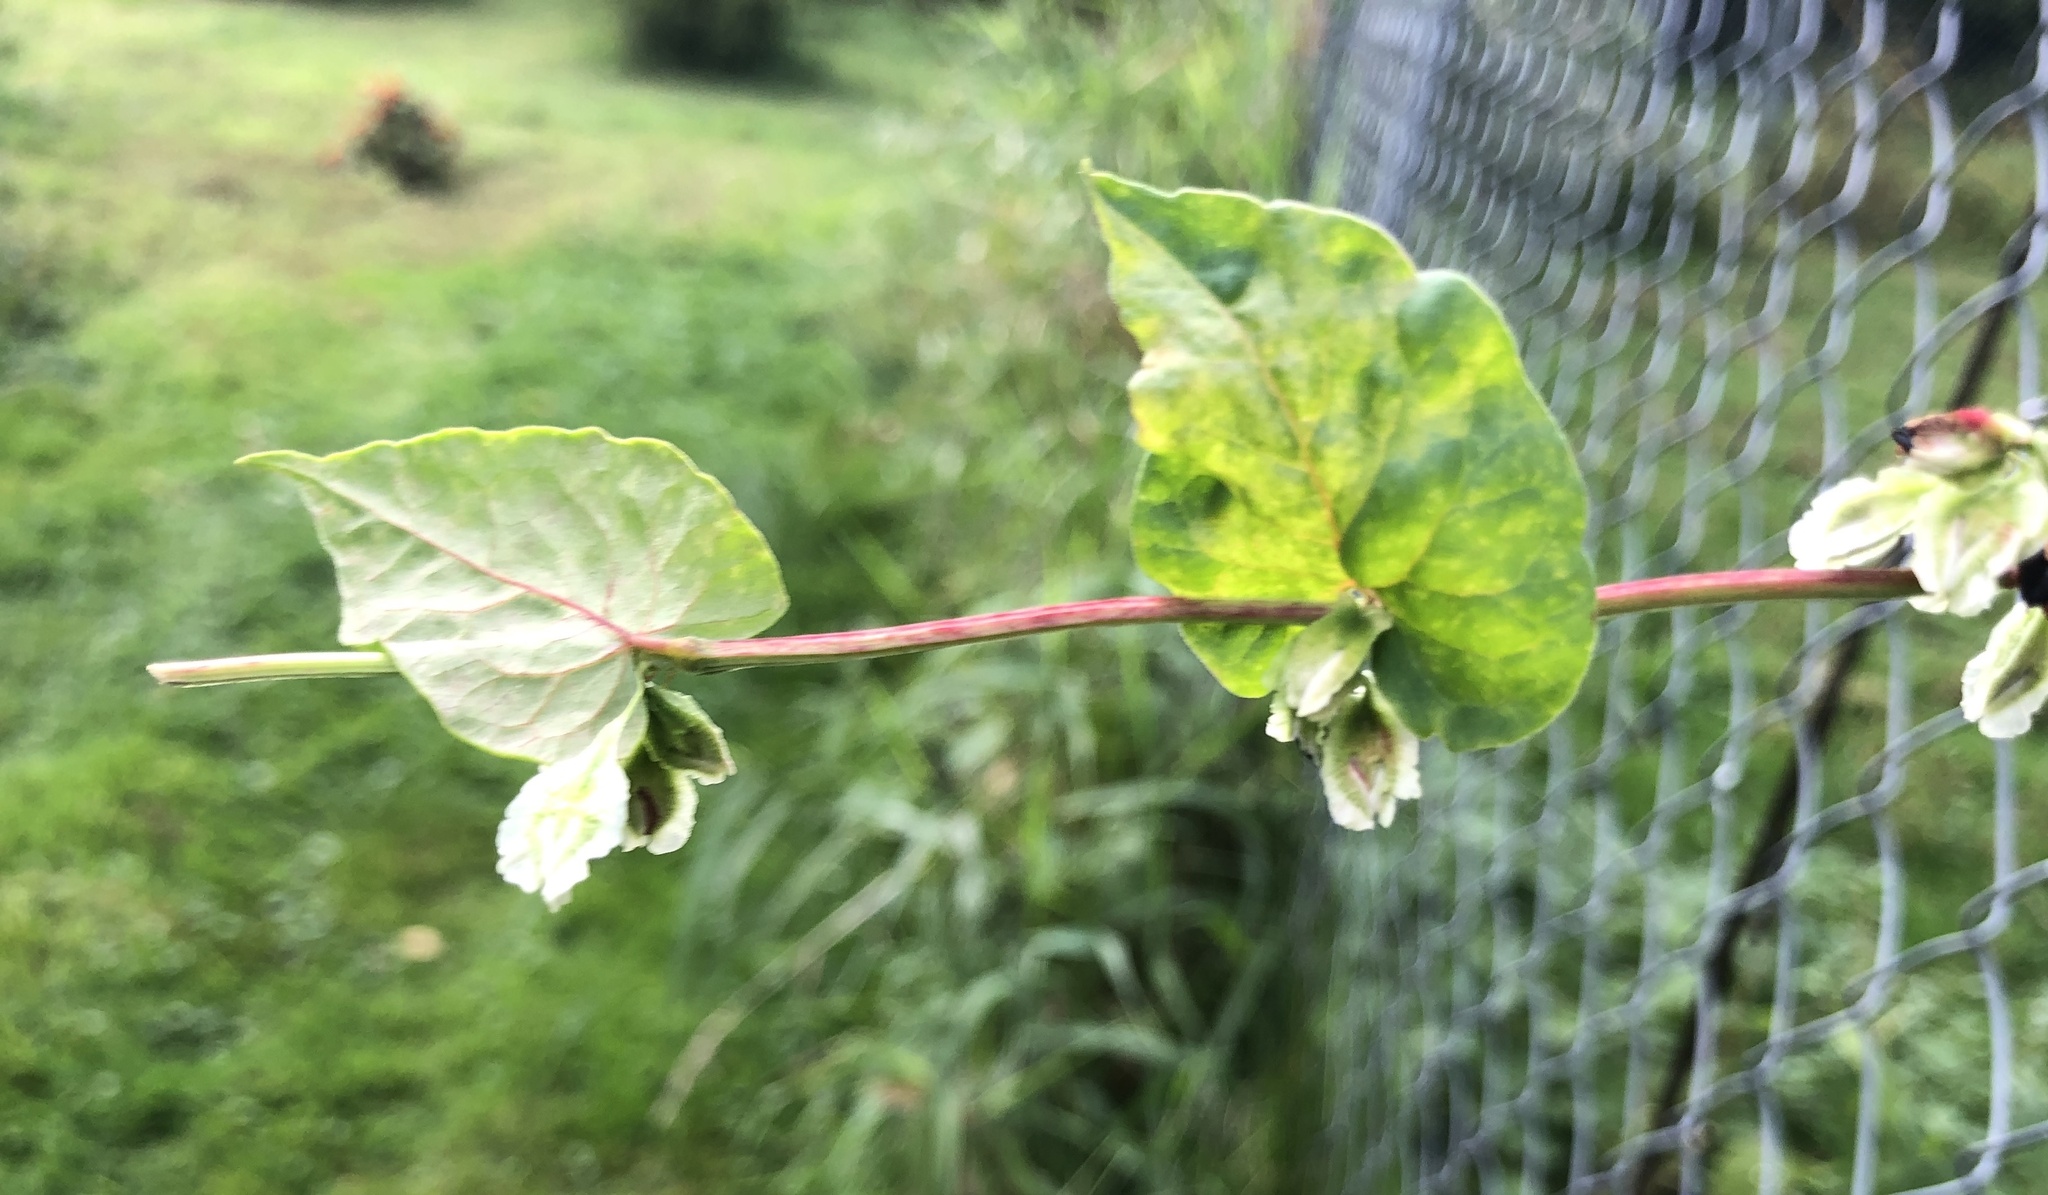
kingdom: Plantae
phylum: Tracheophyta
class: Magnoliopsida
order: Caryophyllales
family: Polygonaceae
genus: Fallopia
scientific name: Fallopia scandens
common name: Climbing false buckwheat
